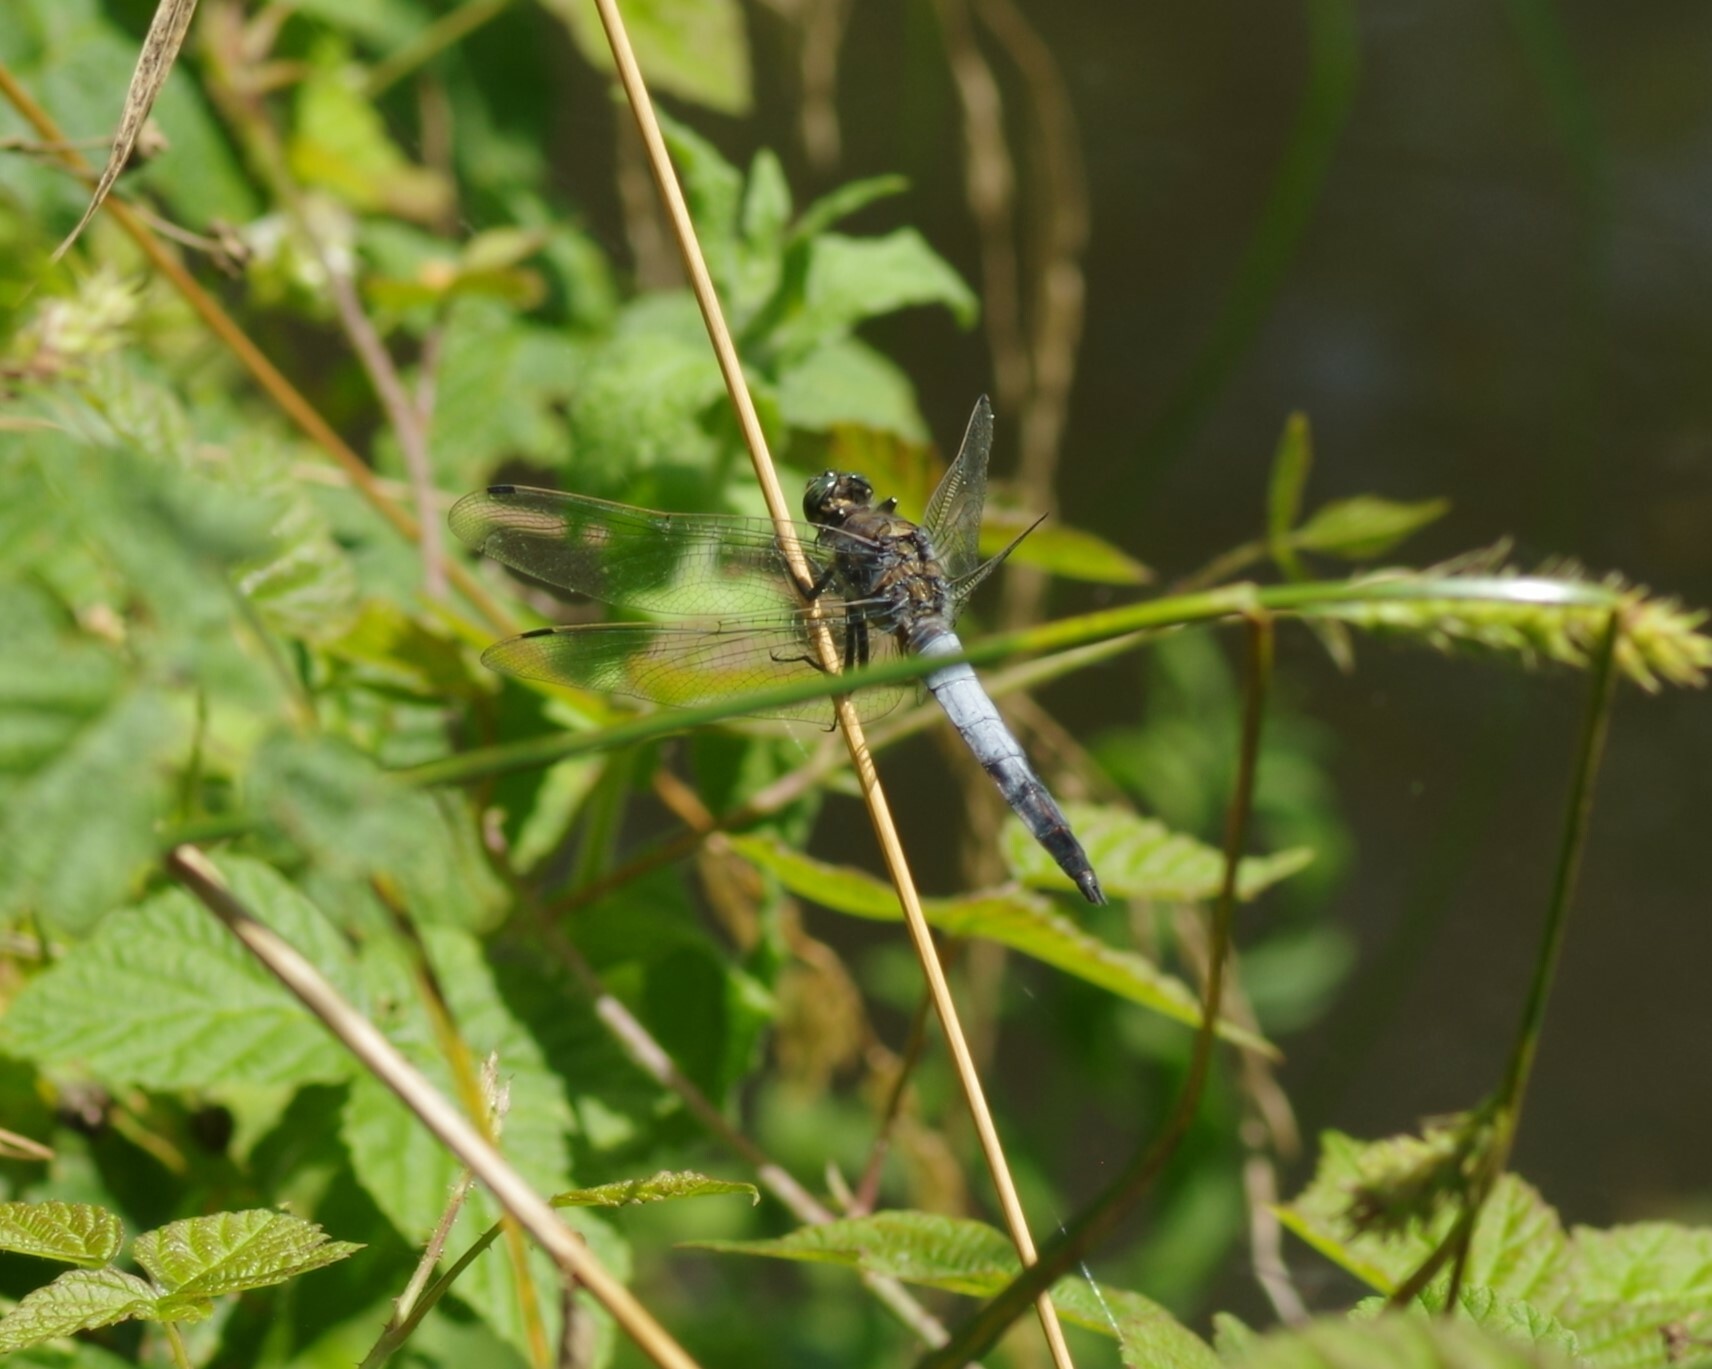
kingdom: Animalia
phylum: Arthropoda
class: Insecta
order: Odonata
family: Libellulidae
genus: Orthetrum
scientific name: Orthetrum cancellatum
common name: Black-tailed skimmer
